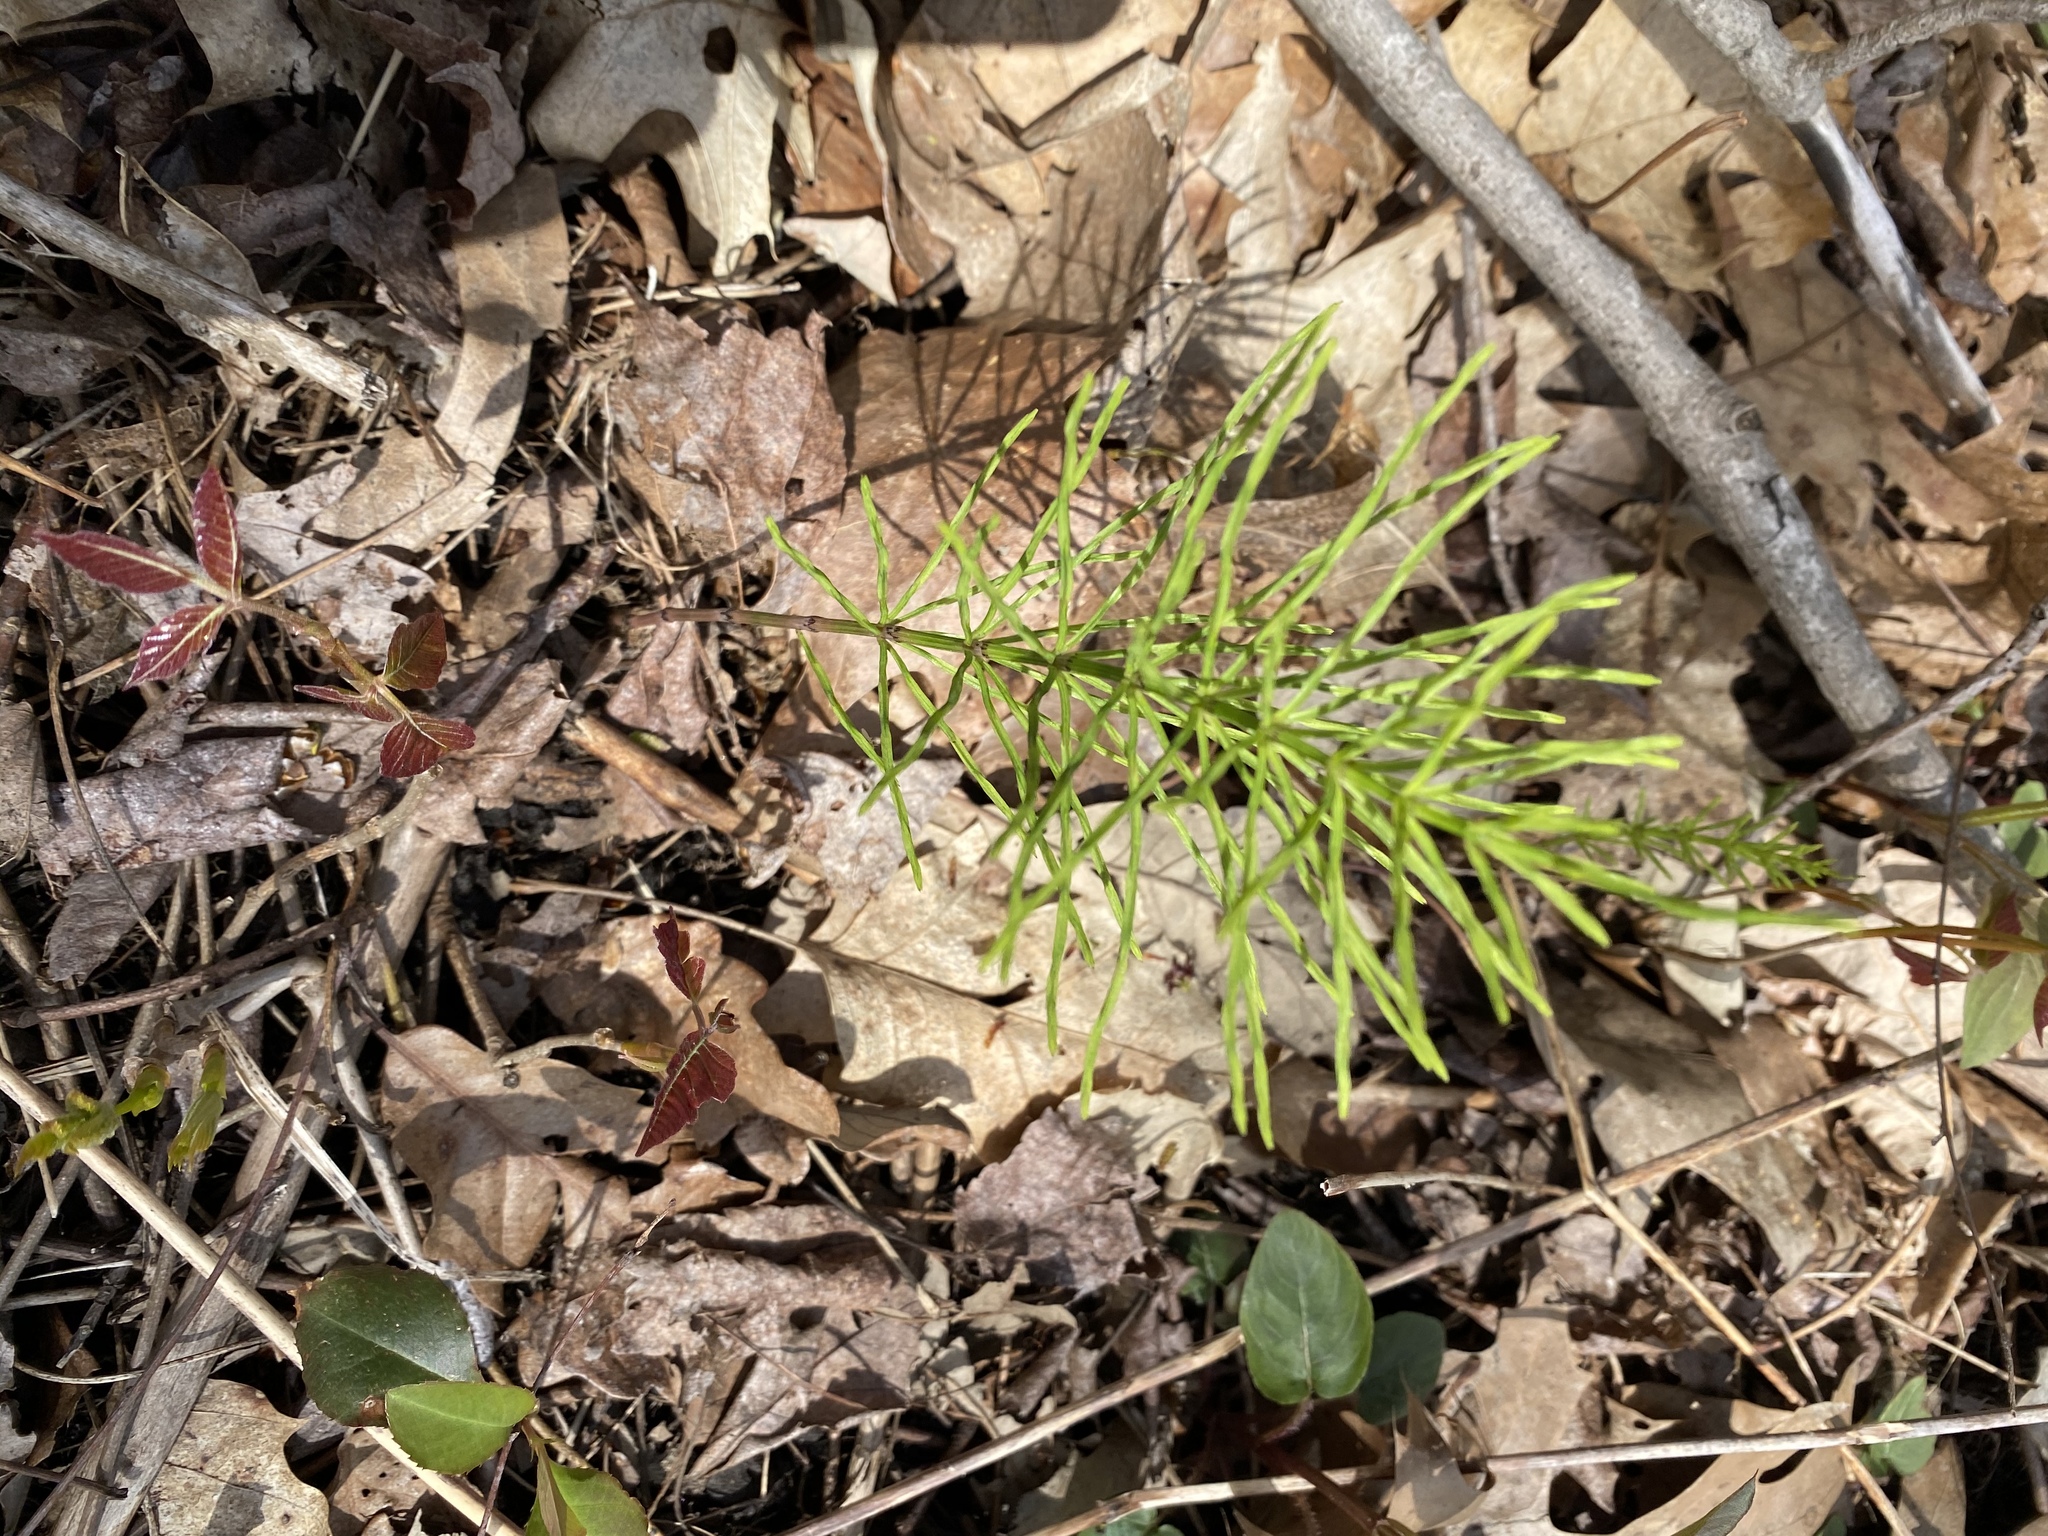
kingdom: Plantae
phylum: Tracheophyta
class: Polypodiopsida
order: Equisetales
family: Equisetaceae
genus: Equisetum
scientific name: Equisetum arvense
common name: Field horsetail
